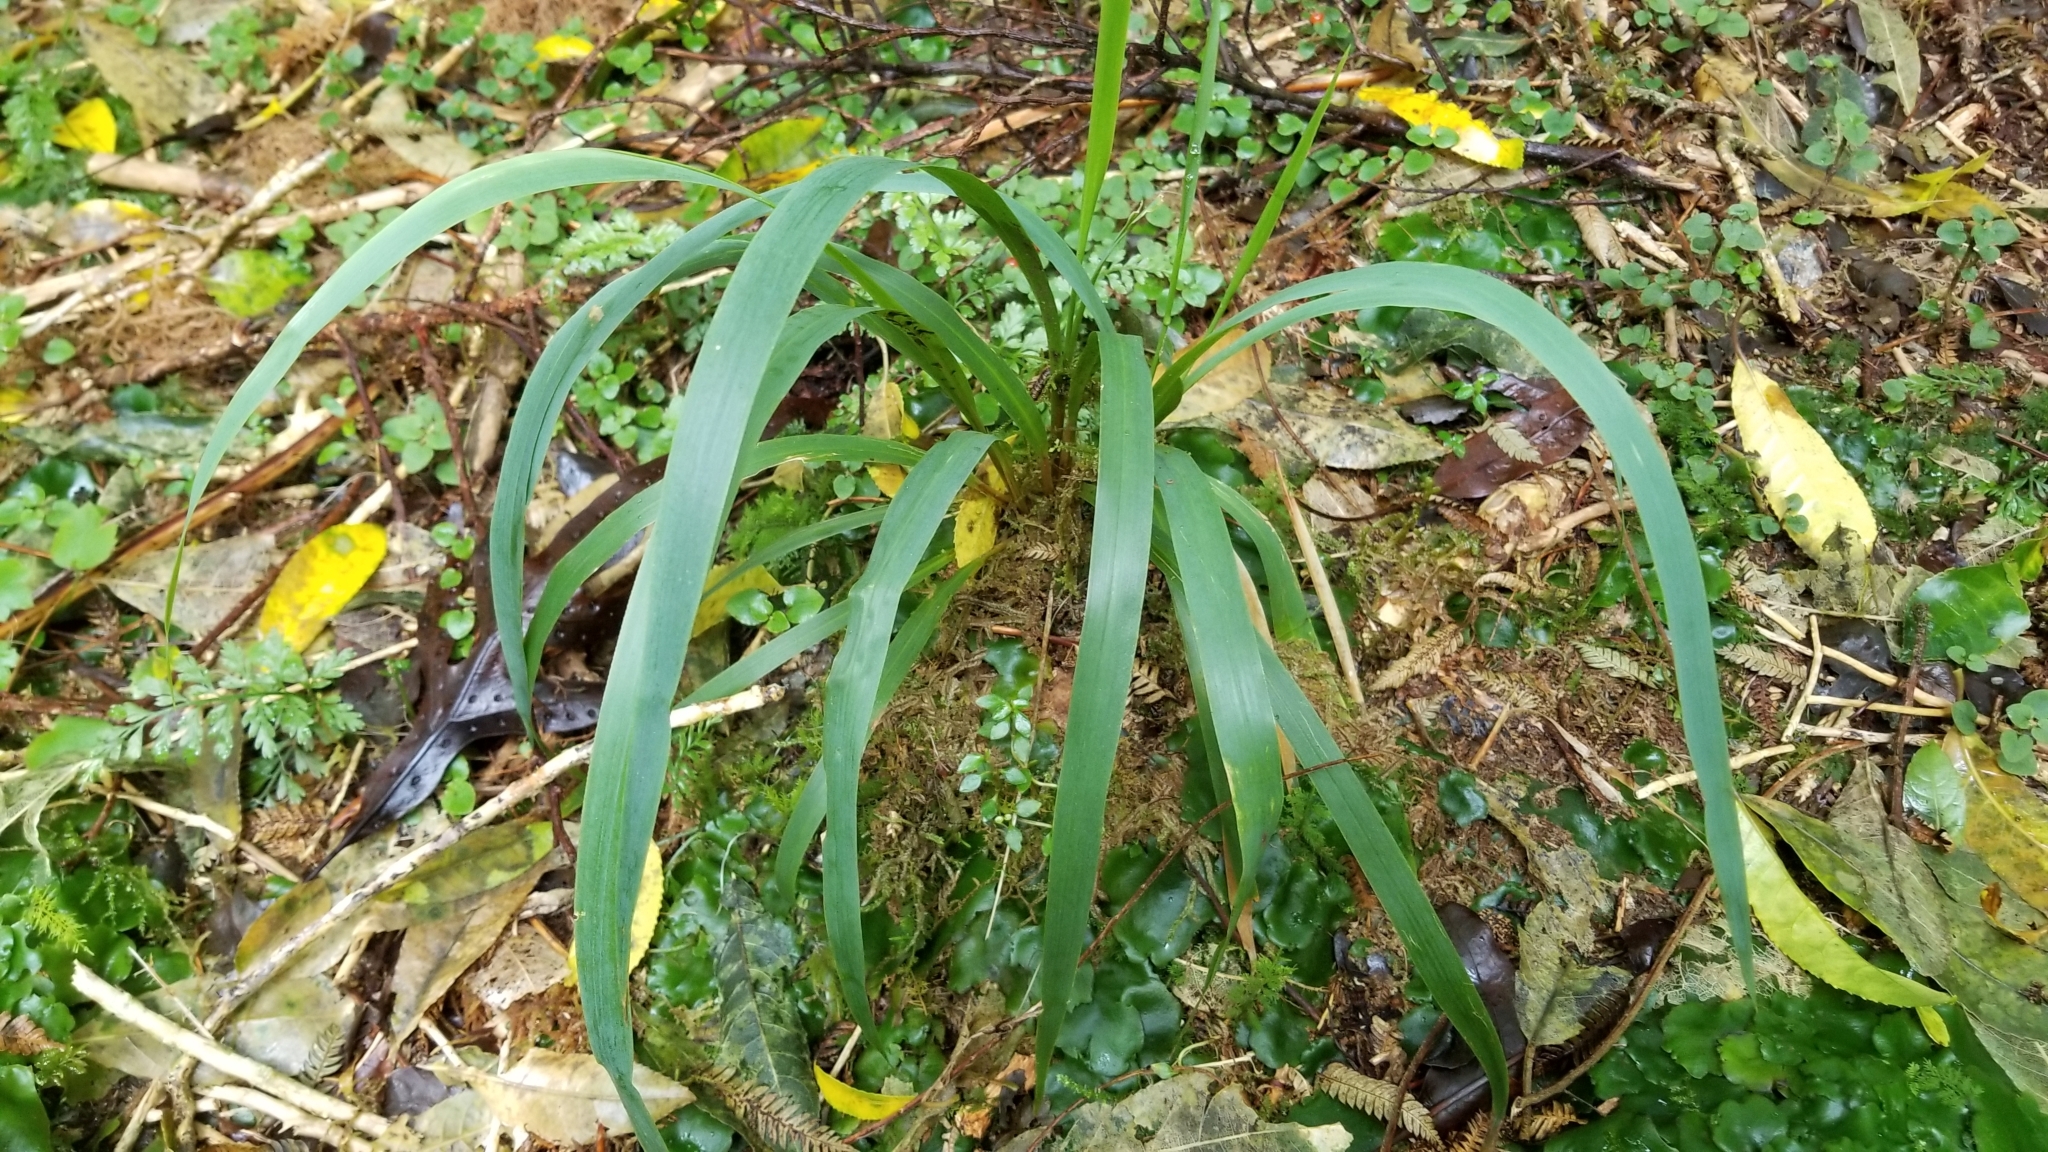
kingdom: Plantae
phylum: Tracheophyta
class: Liliopsida
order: Poales
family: Poaceae
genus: Ehrharta
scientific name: Ehrharta diplax
